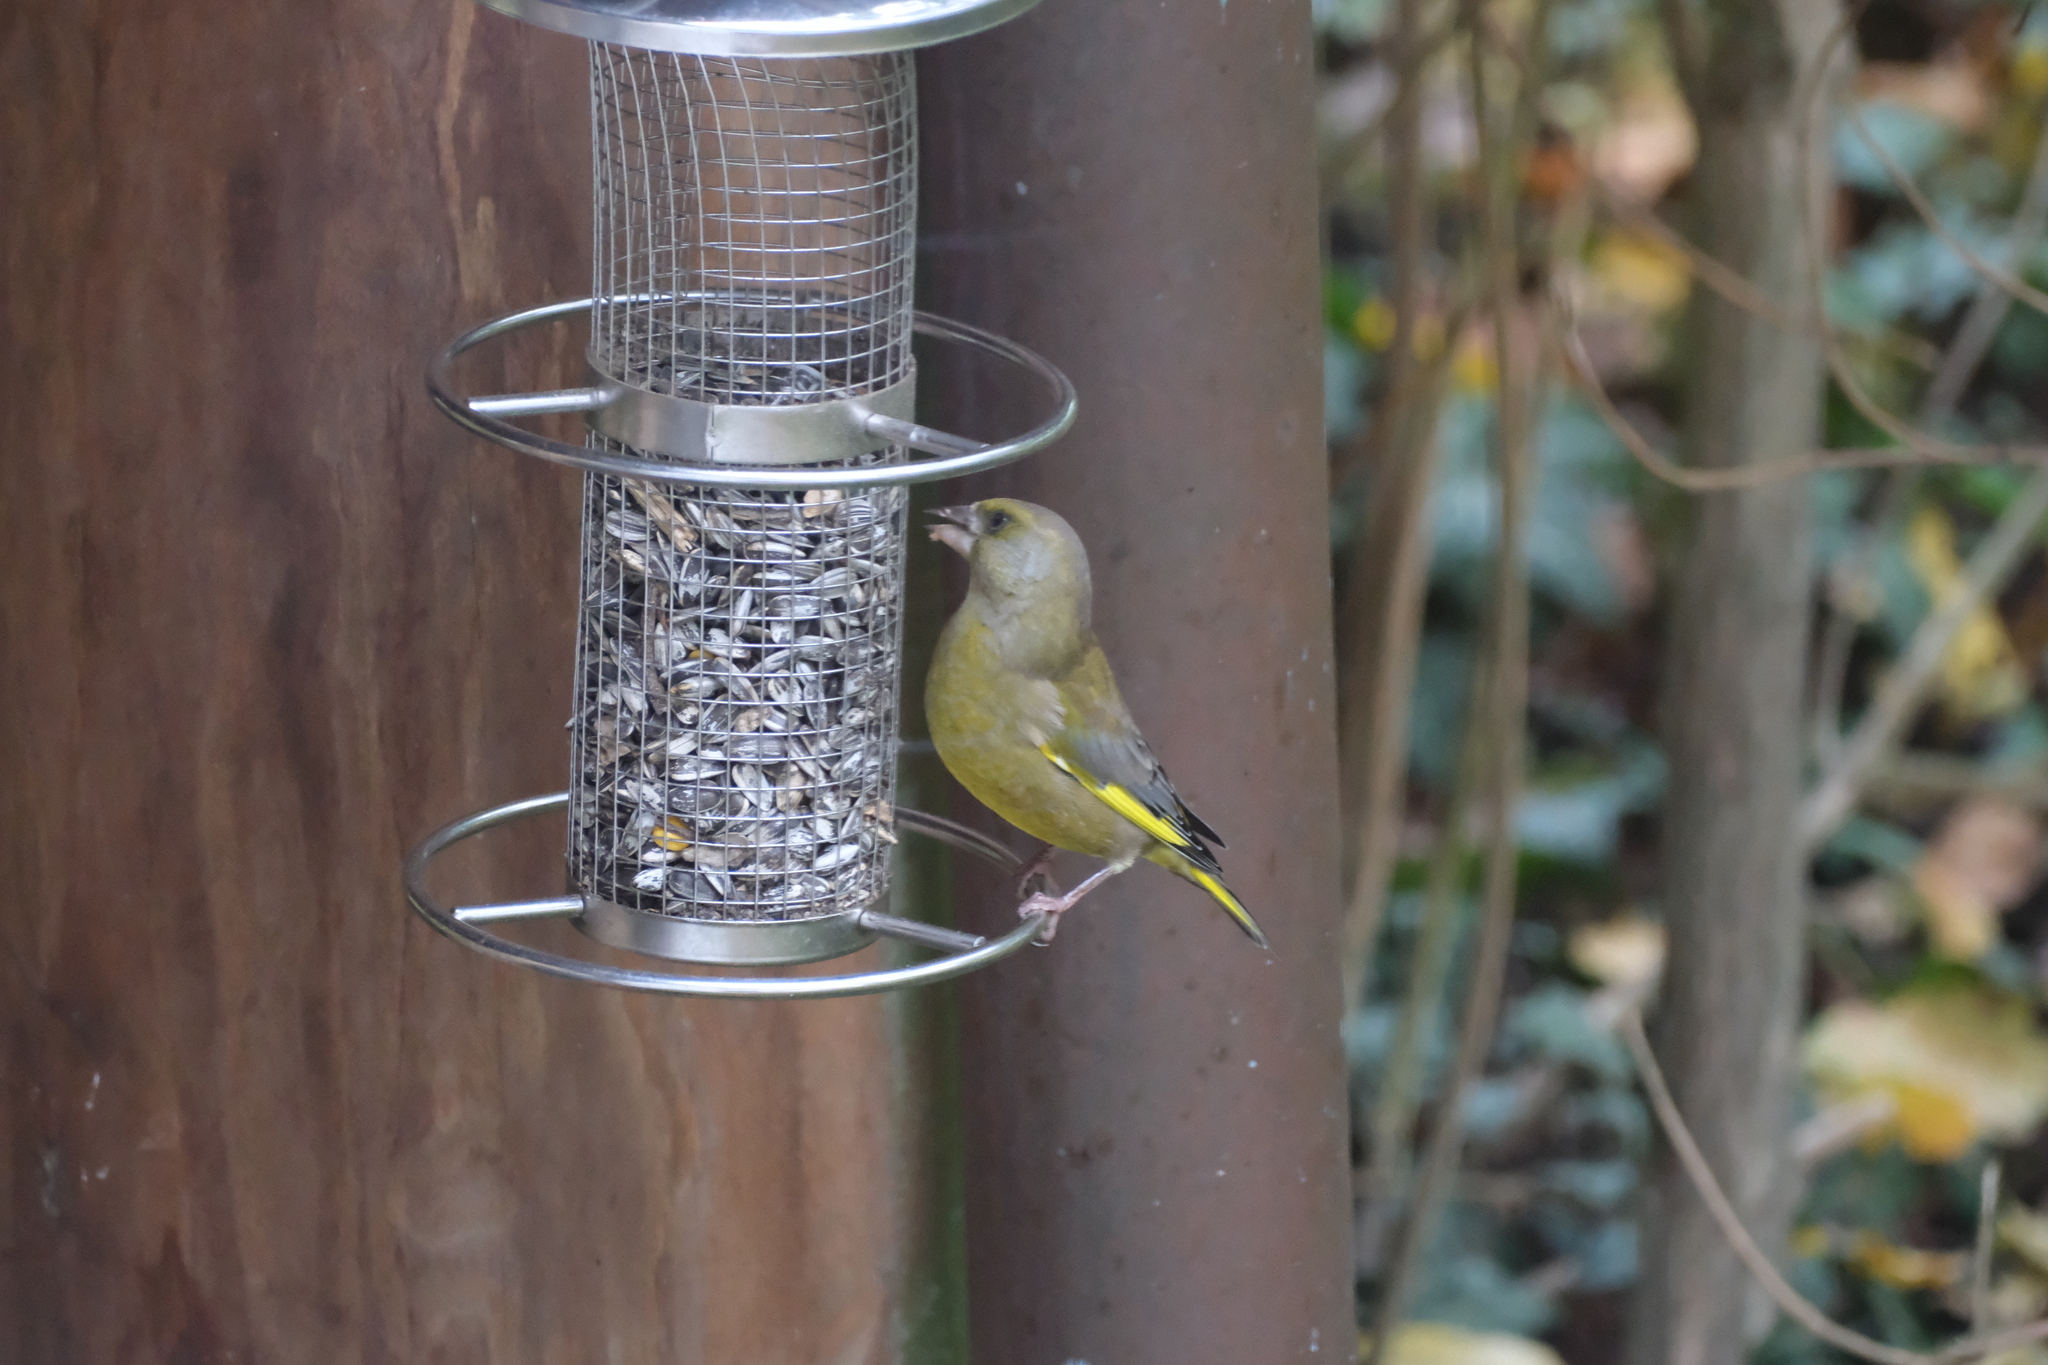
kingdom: Plantae
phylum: Tracheophyta
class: Liliopsida
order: Poales
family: Poaceae
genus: Chloris
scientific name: Chloris chloris
